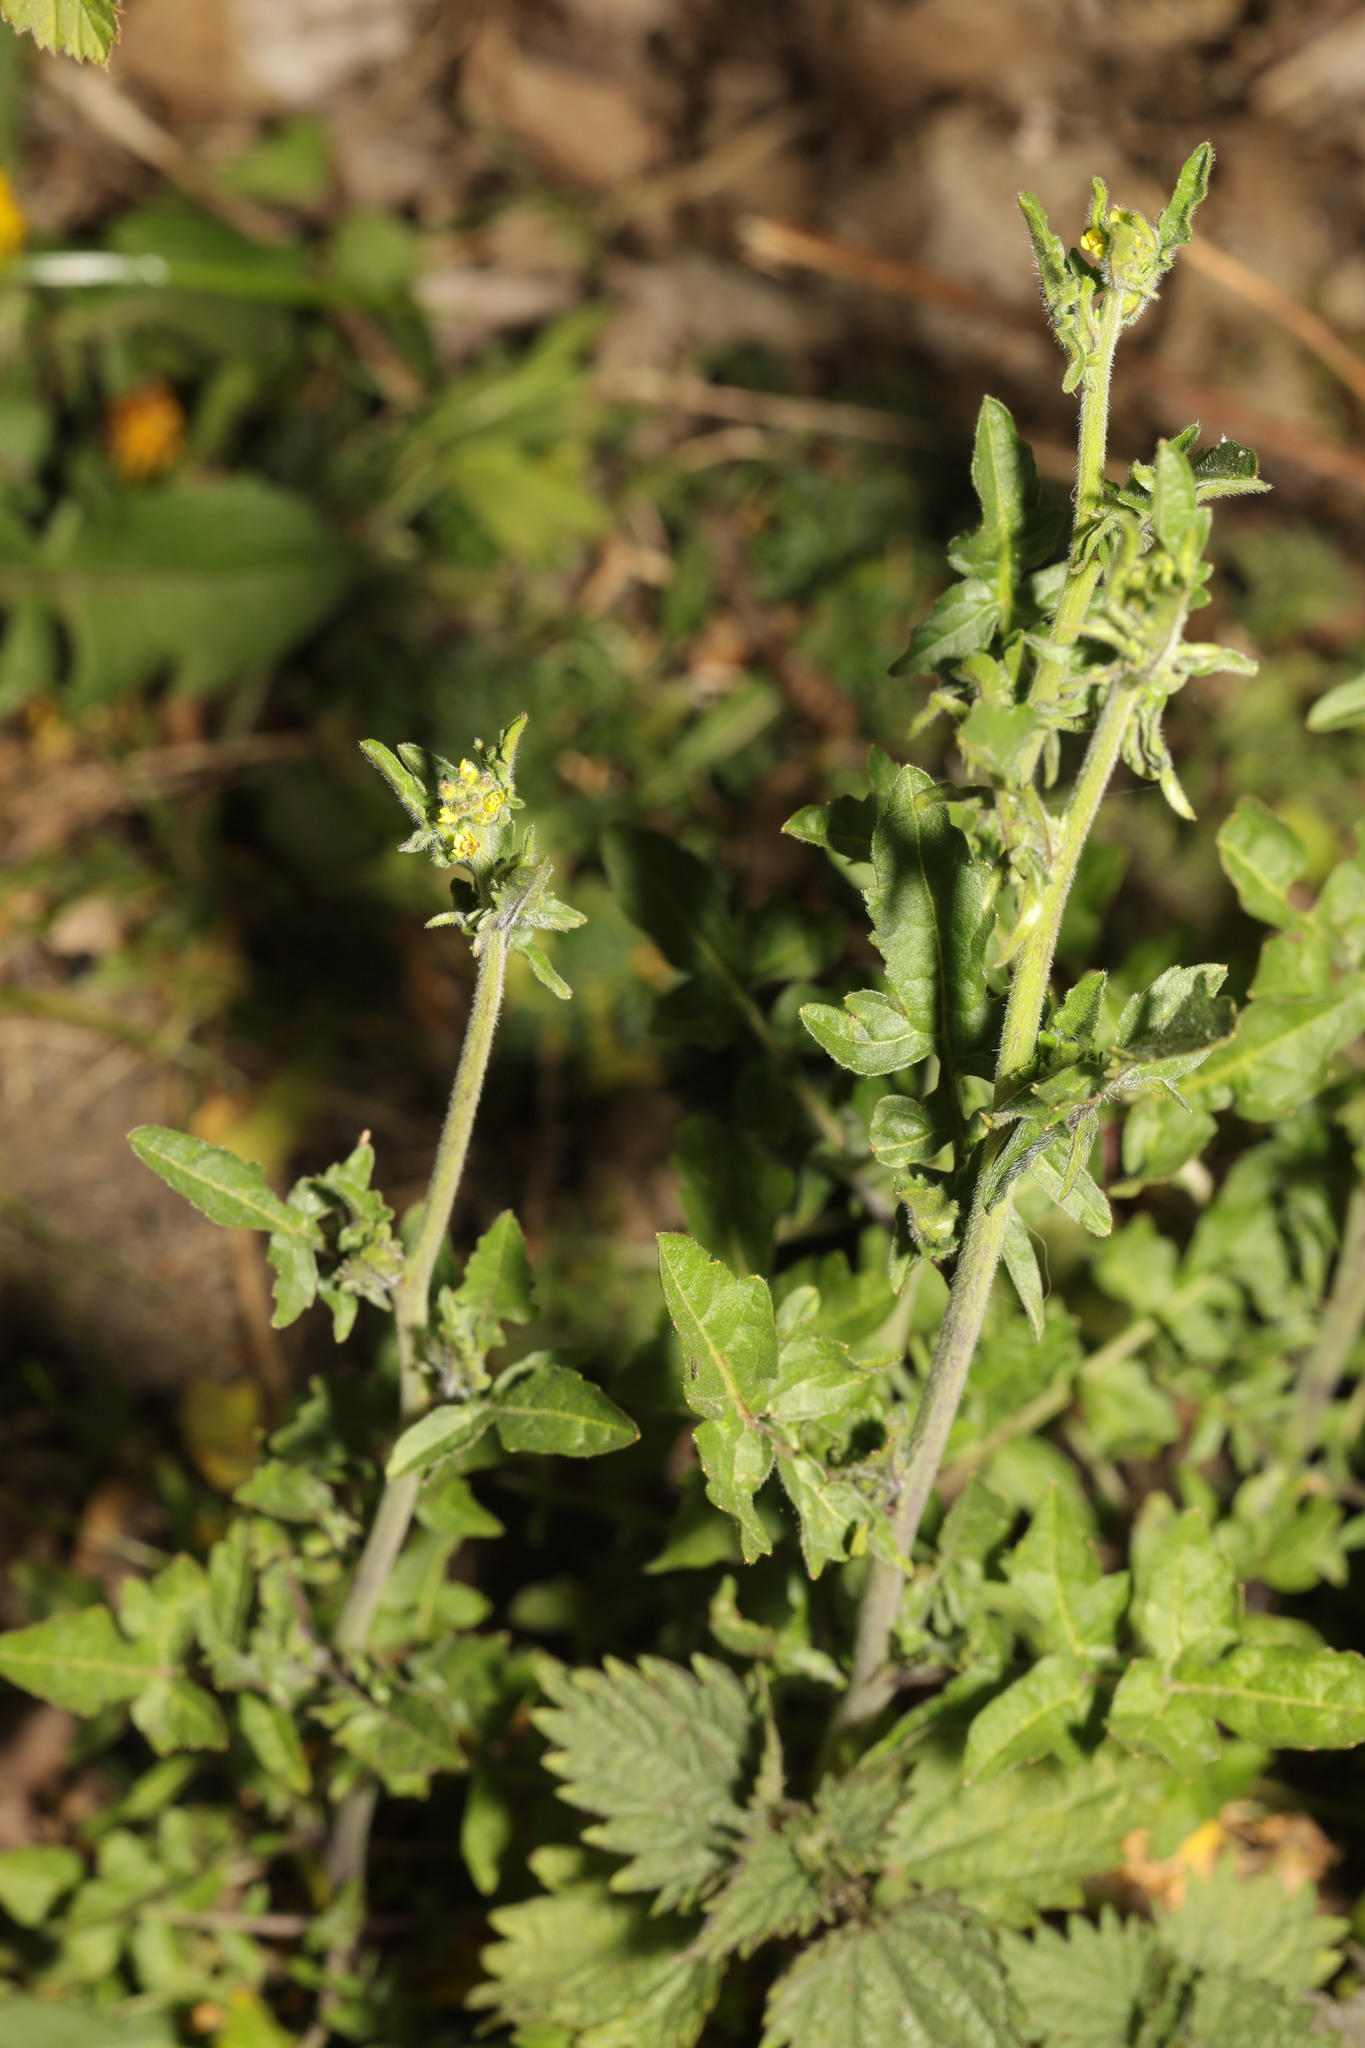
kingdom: Plantae
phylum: Tracheophyta
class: Magnoliopsida
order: Brassicales
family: Brassicaceae
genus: Sisymbrium
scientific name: Sisymbrium officinale
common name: Hedge mustard
